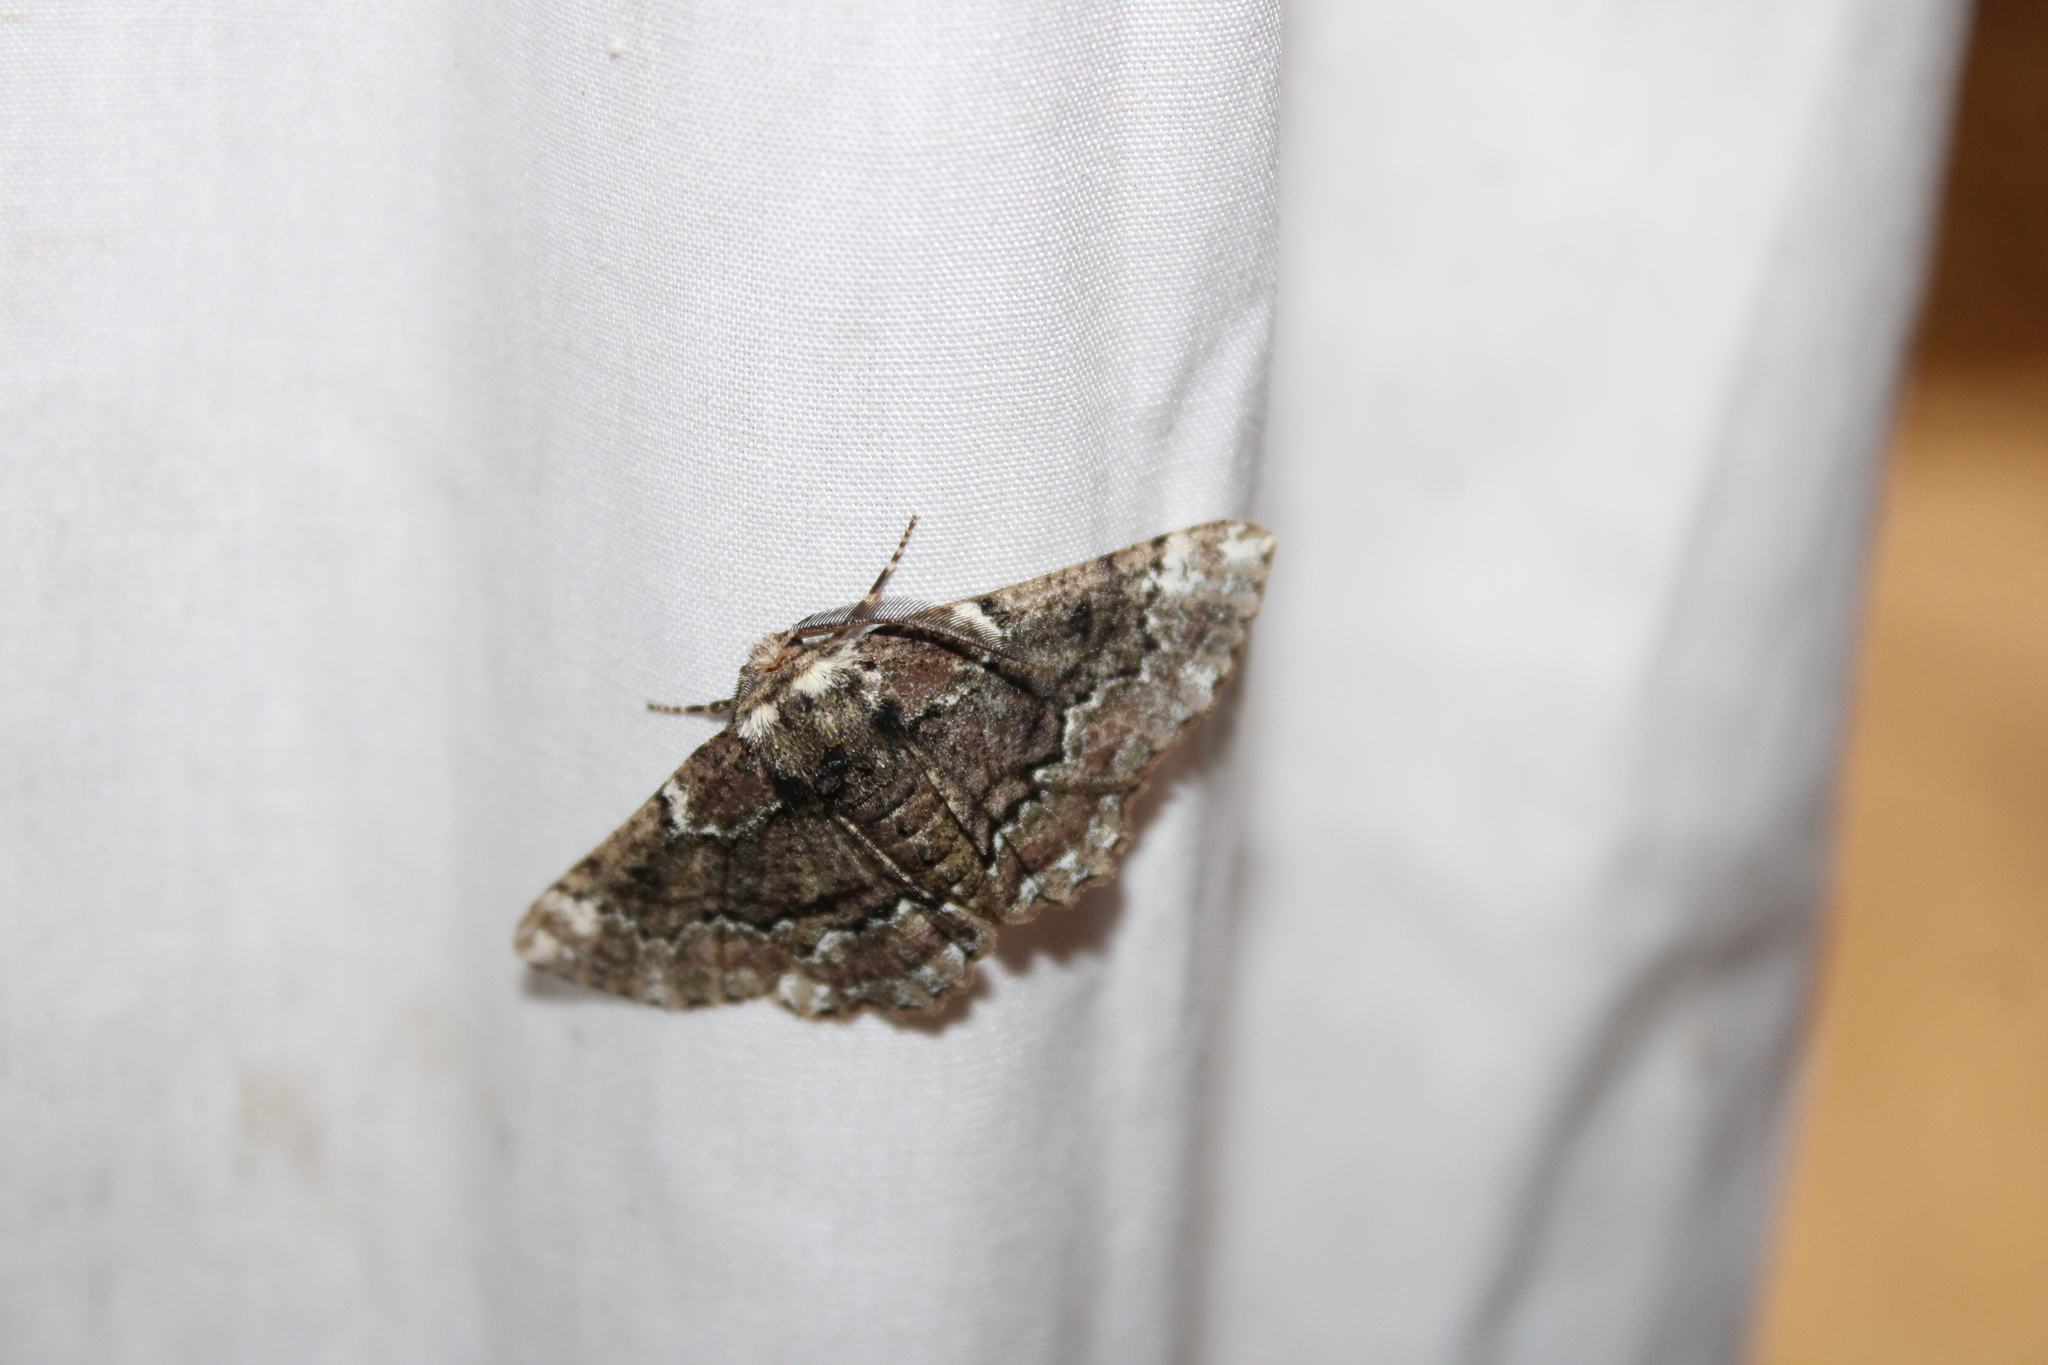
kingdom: Animalia
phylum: Arthropoda
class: Insecta
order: Lepidoptera
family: Geometridae
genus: Phaeoura
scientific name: Phaeoura quernaria
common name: Oak beauty
